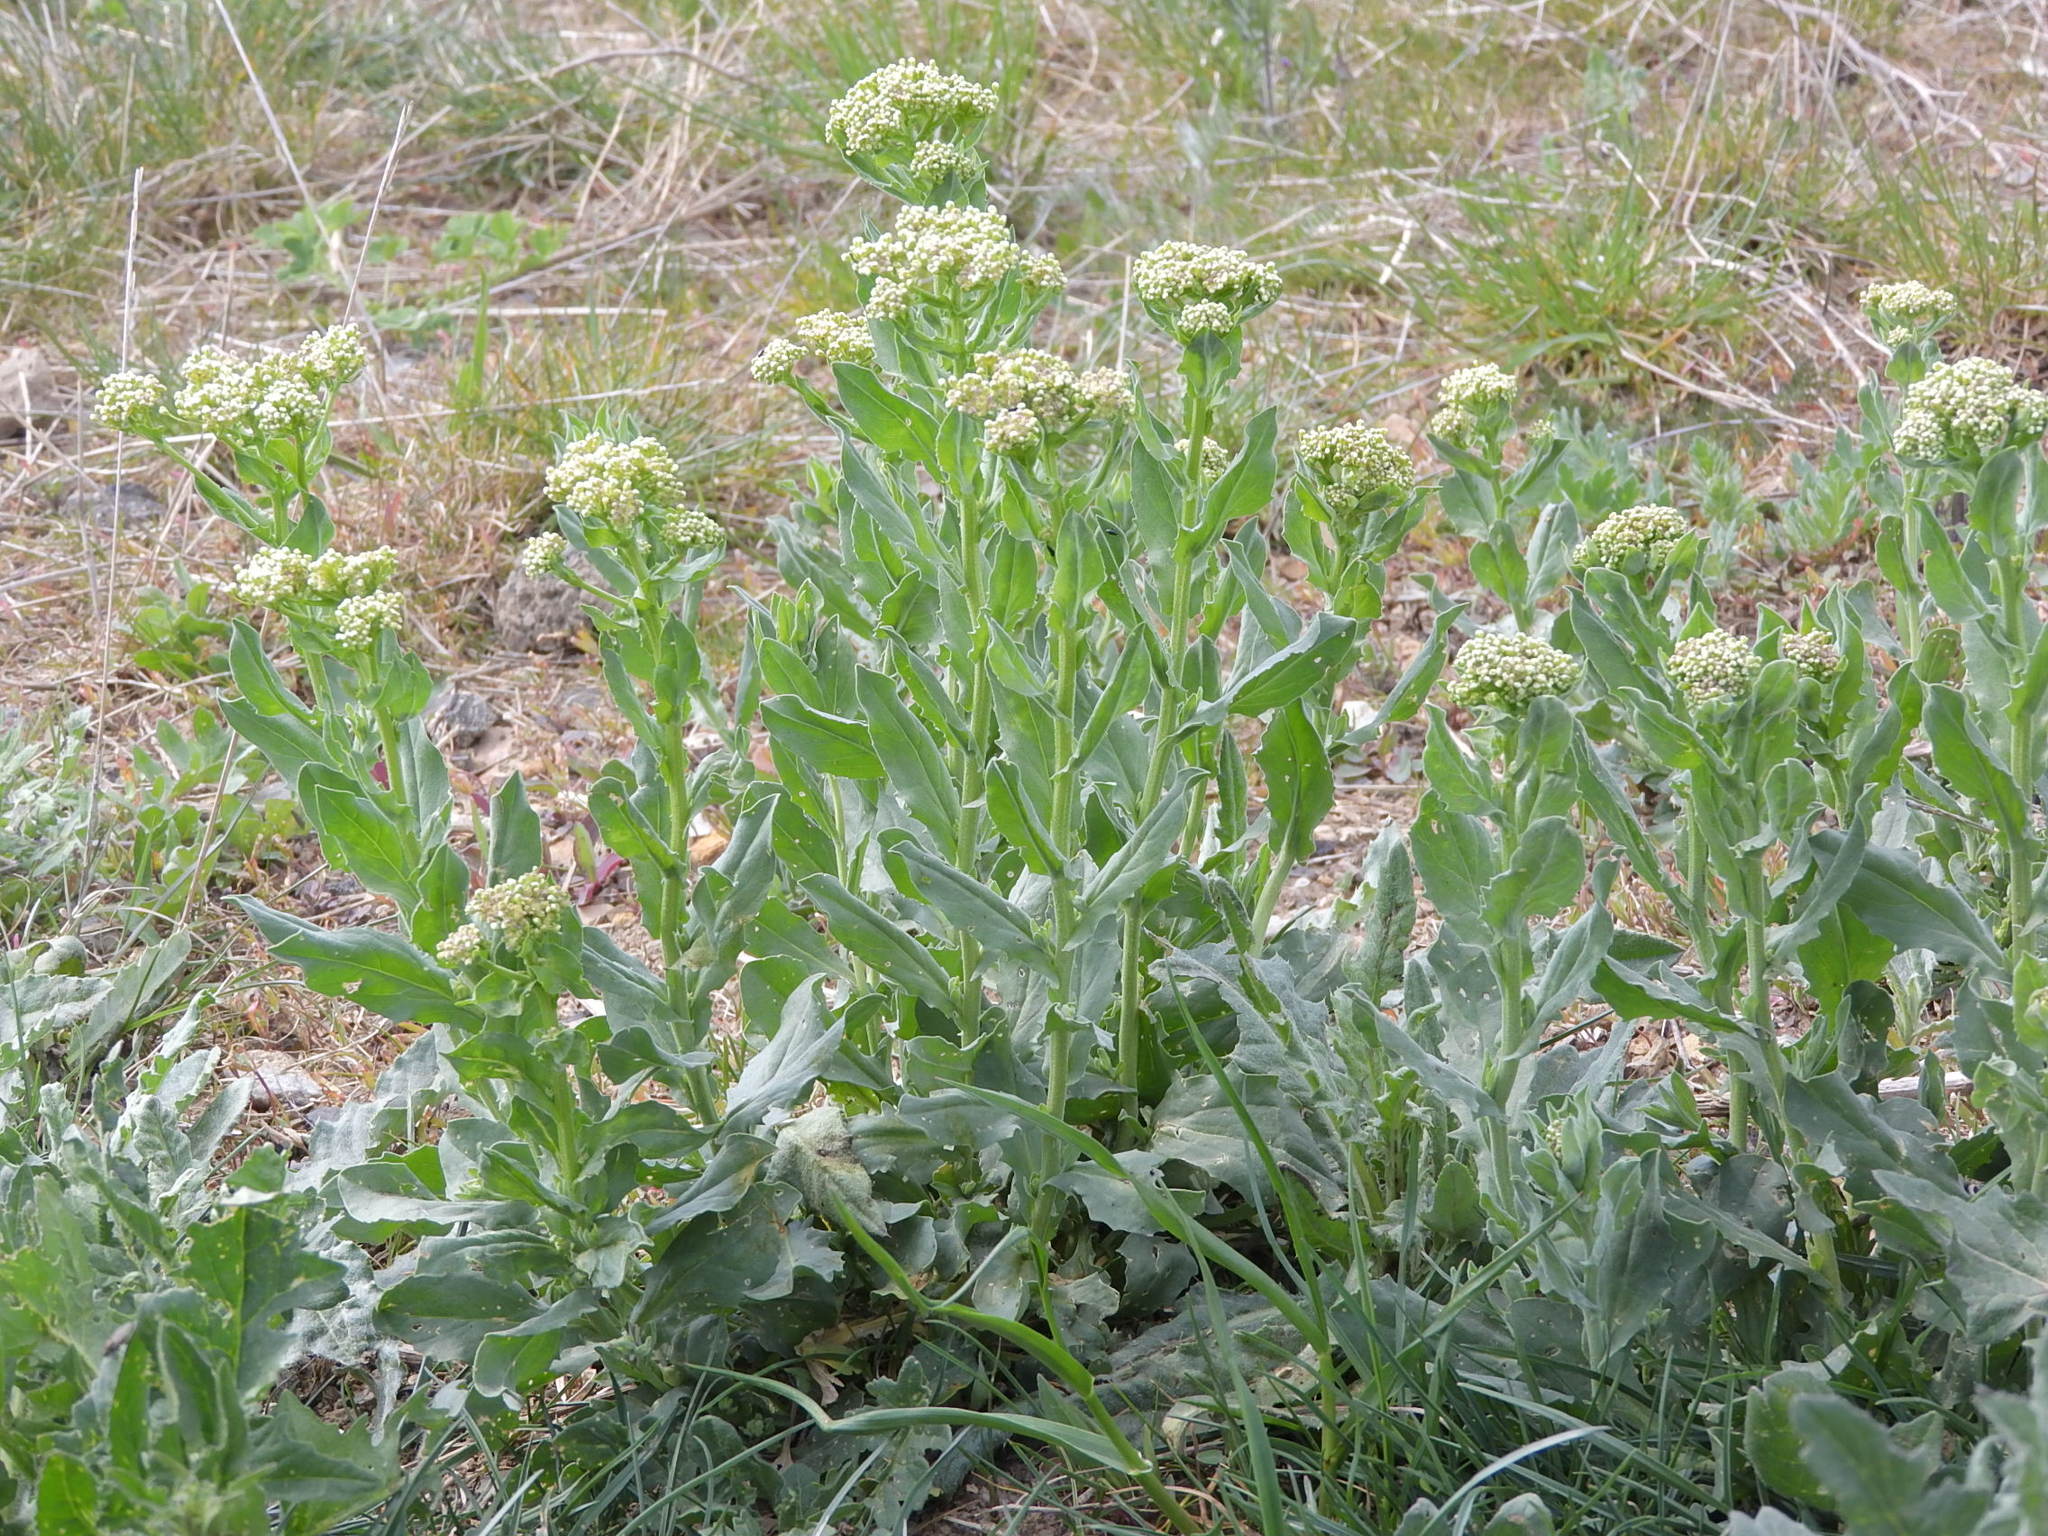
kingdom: Plantae
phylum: Tracheophyta
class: Magnoliopsida
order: Brassicales
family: Brassicaceae
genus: Lepidium
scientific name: Lepidium draba
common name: Hoary cress
